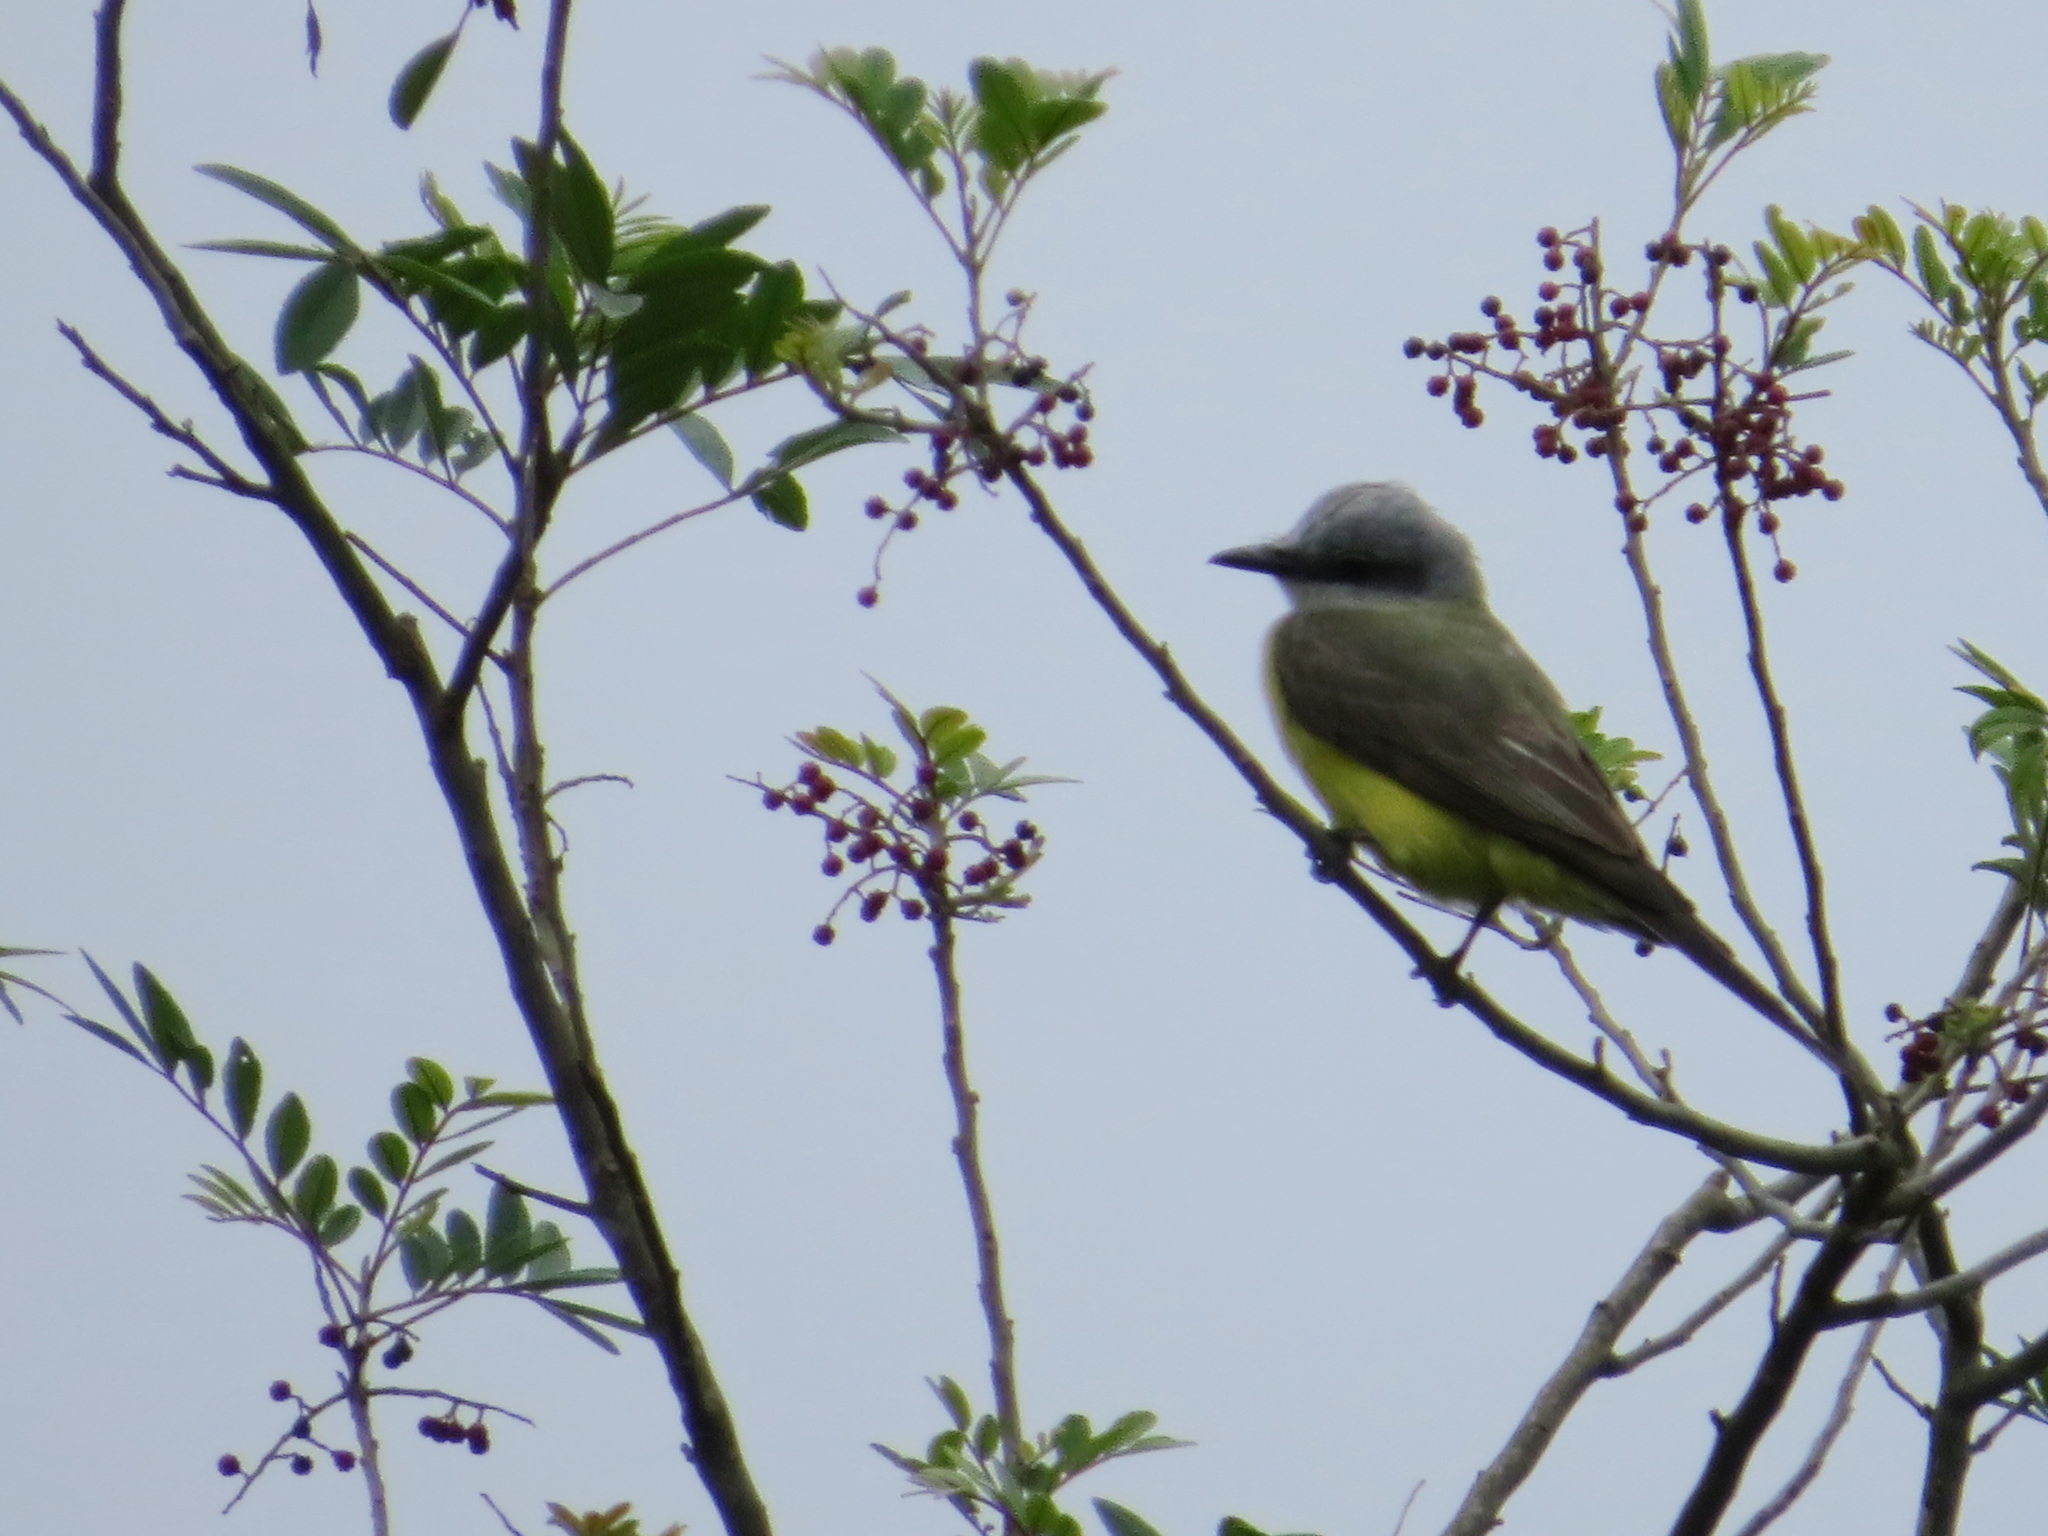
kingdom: Animalia
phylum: Chordata
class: Aves
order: Passeriformes
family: Tyrannidae
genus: Tyrannus
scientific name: Tyrannus melancholicus
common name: Tropical kingbird
